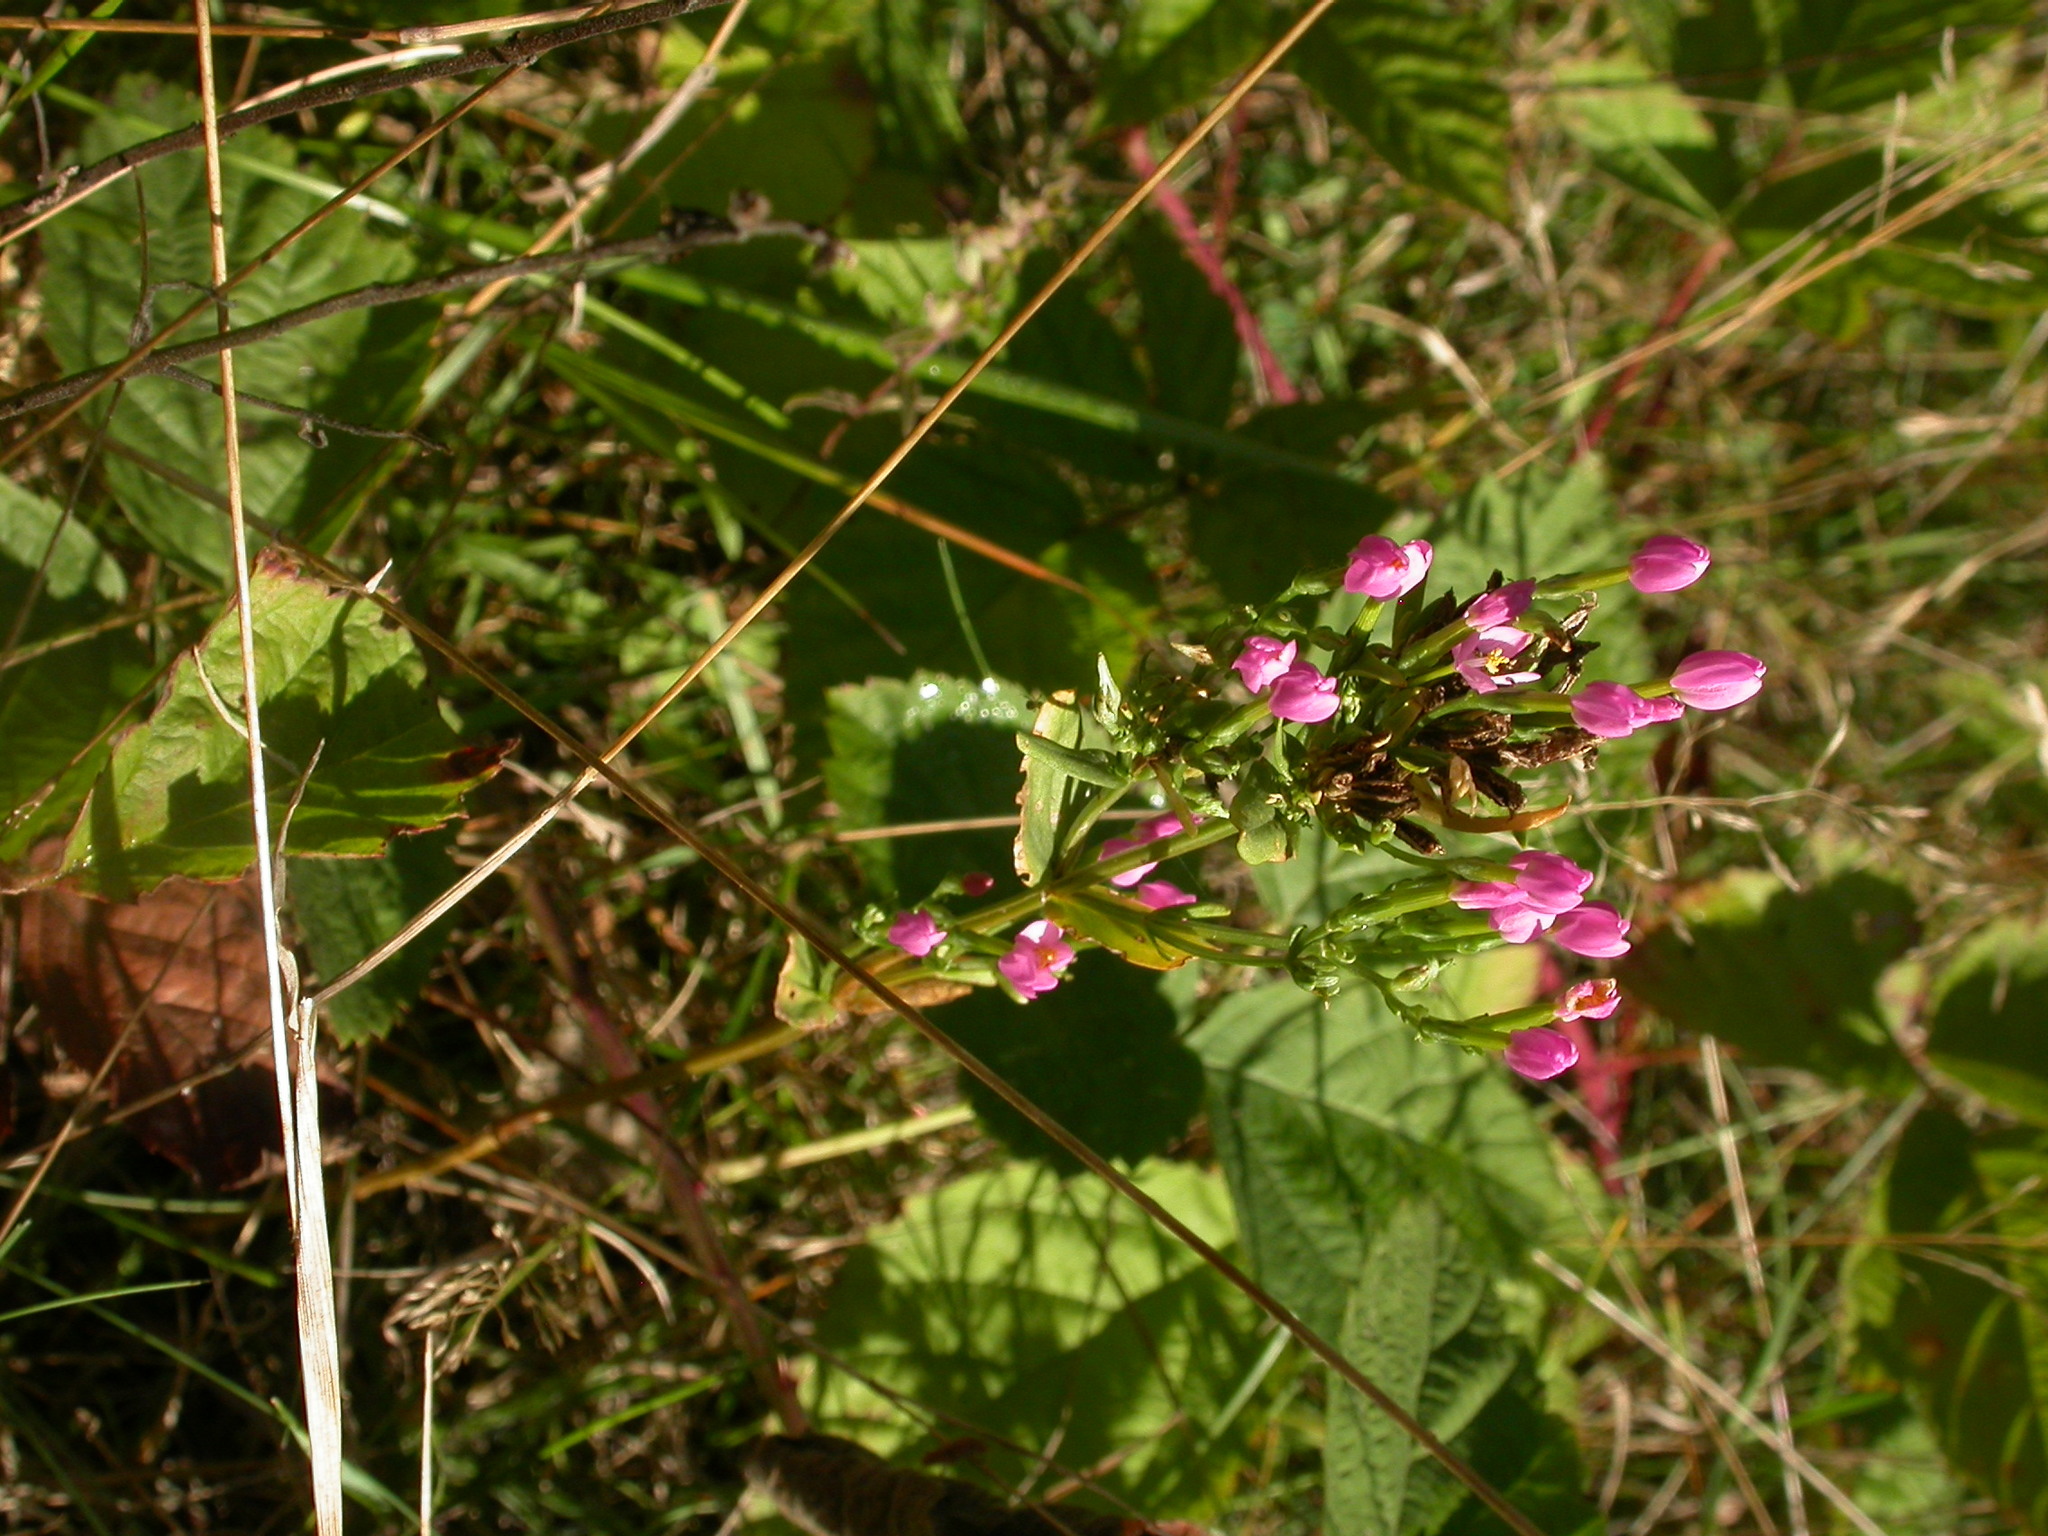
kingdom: Plantae
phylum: Tracheophyta
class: Magnoliopsida
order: Gentianales
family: Gentianaceae
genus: Centaurium
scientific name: Centaurium erythraea
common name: Common centaury
